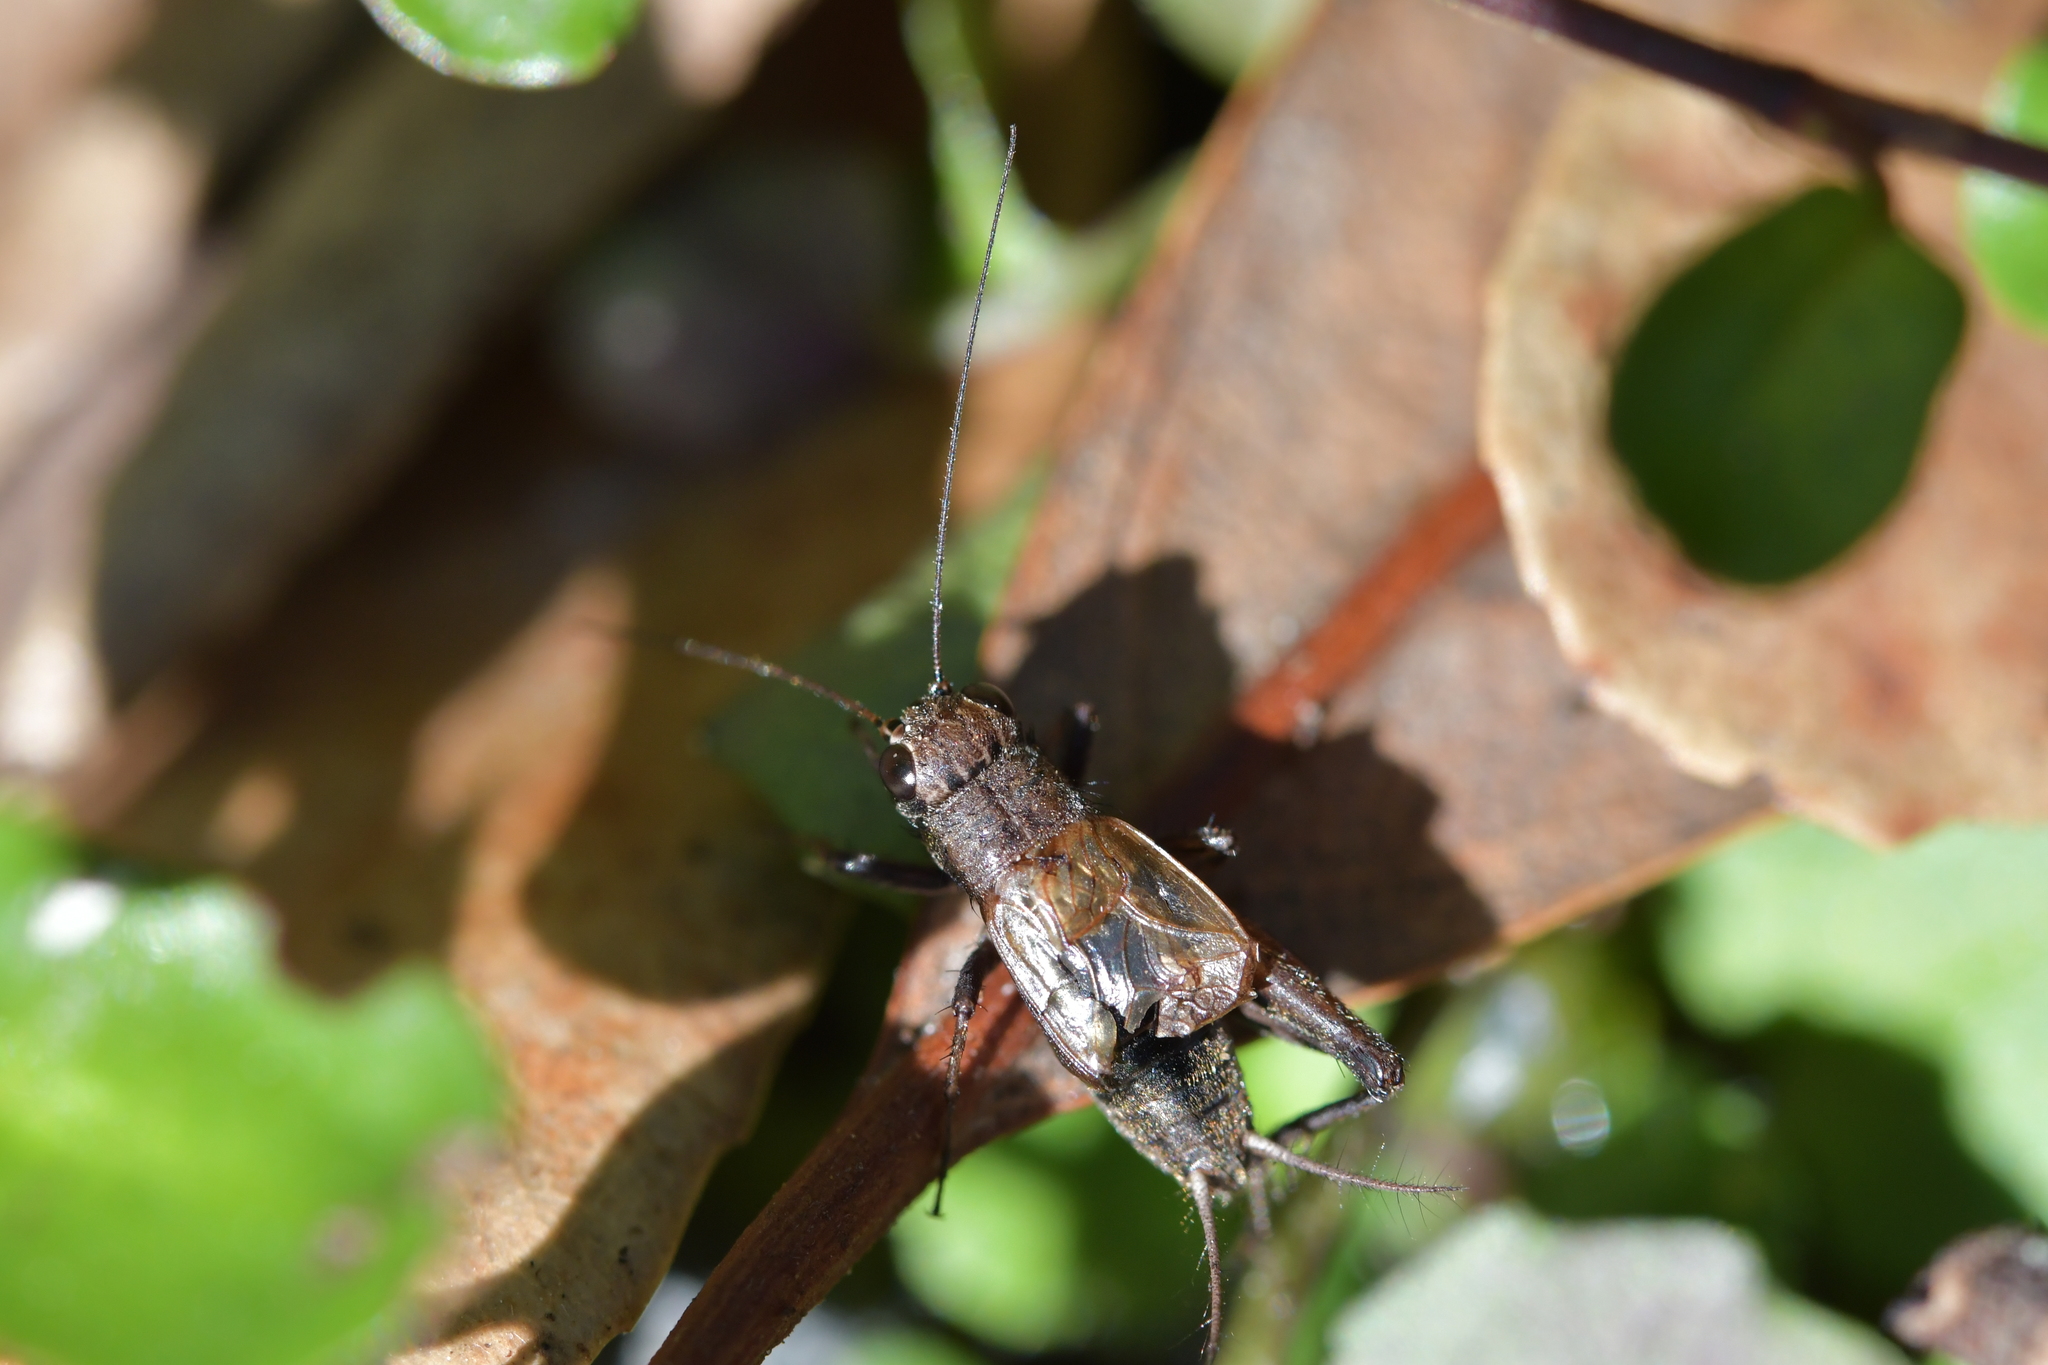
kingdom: Animalia
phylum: Arthropoda
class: Insecta
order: Orthoptera
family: Trigonidiidae
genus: Bobilla
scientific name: Bobilla nigrovus
